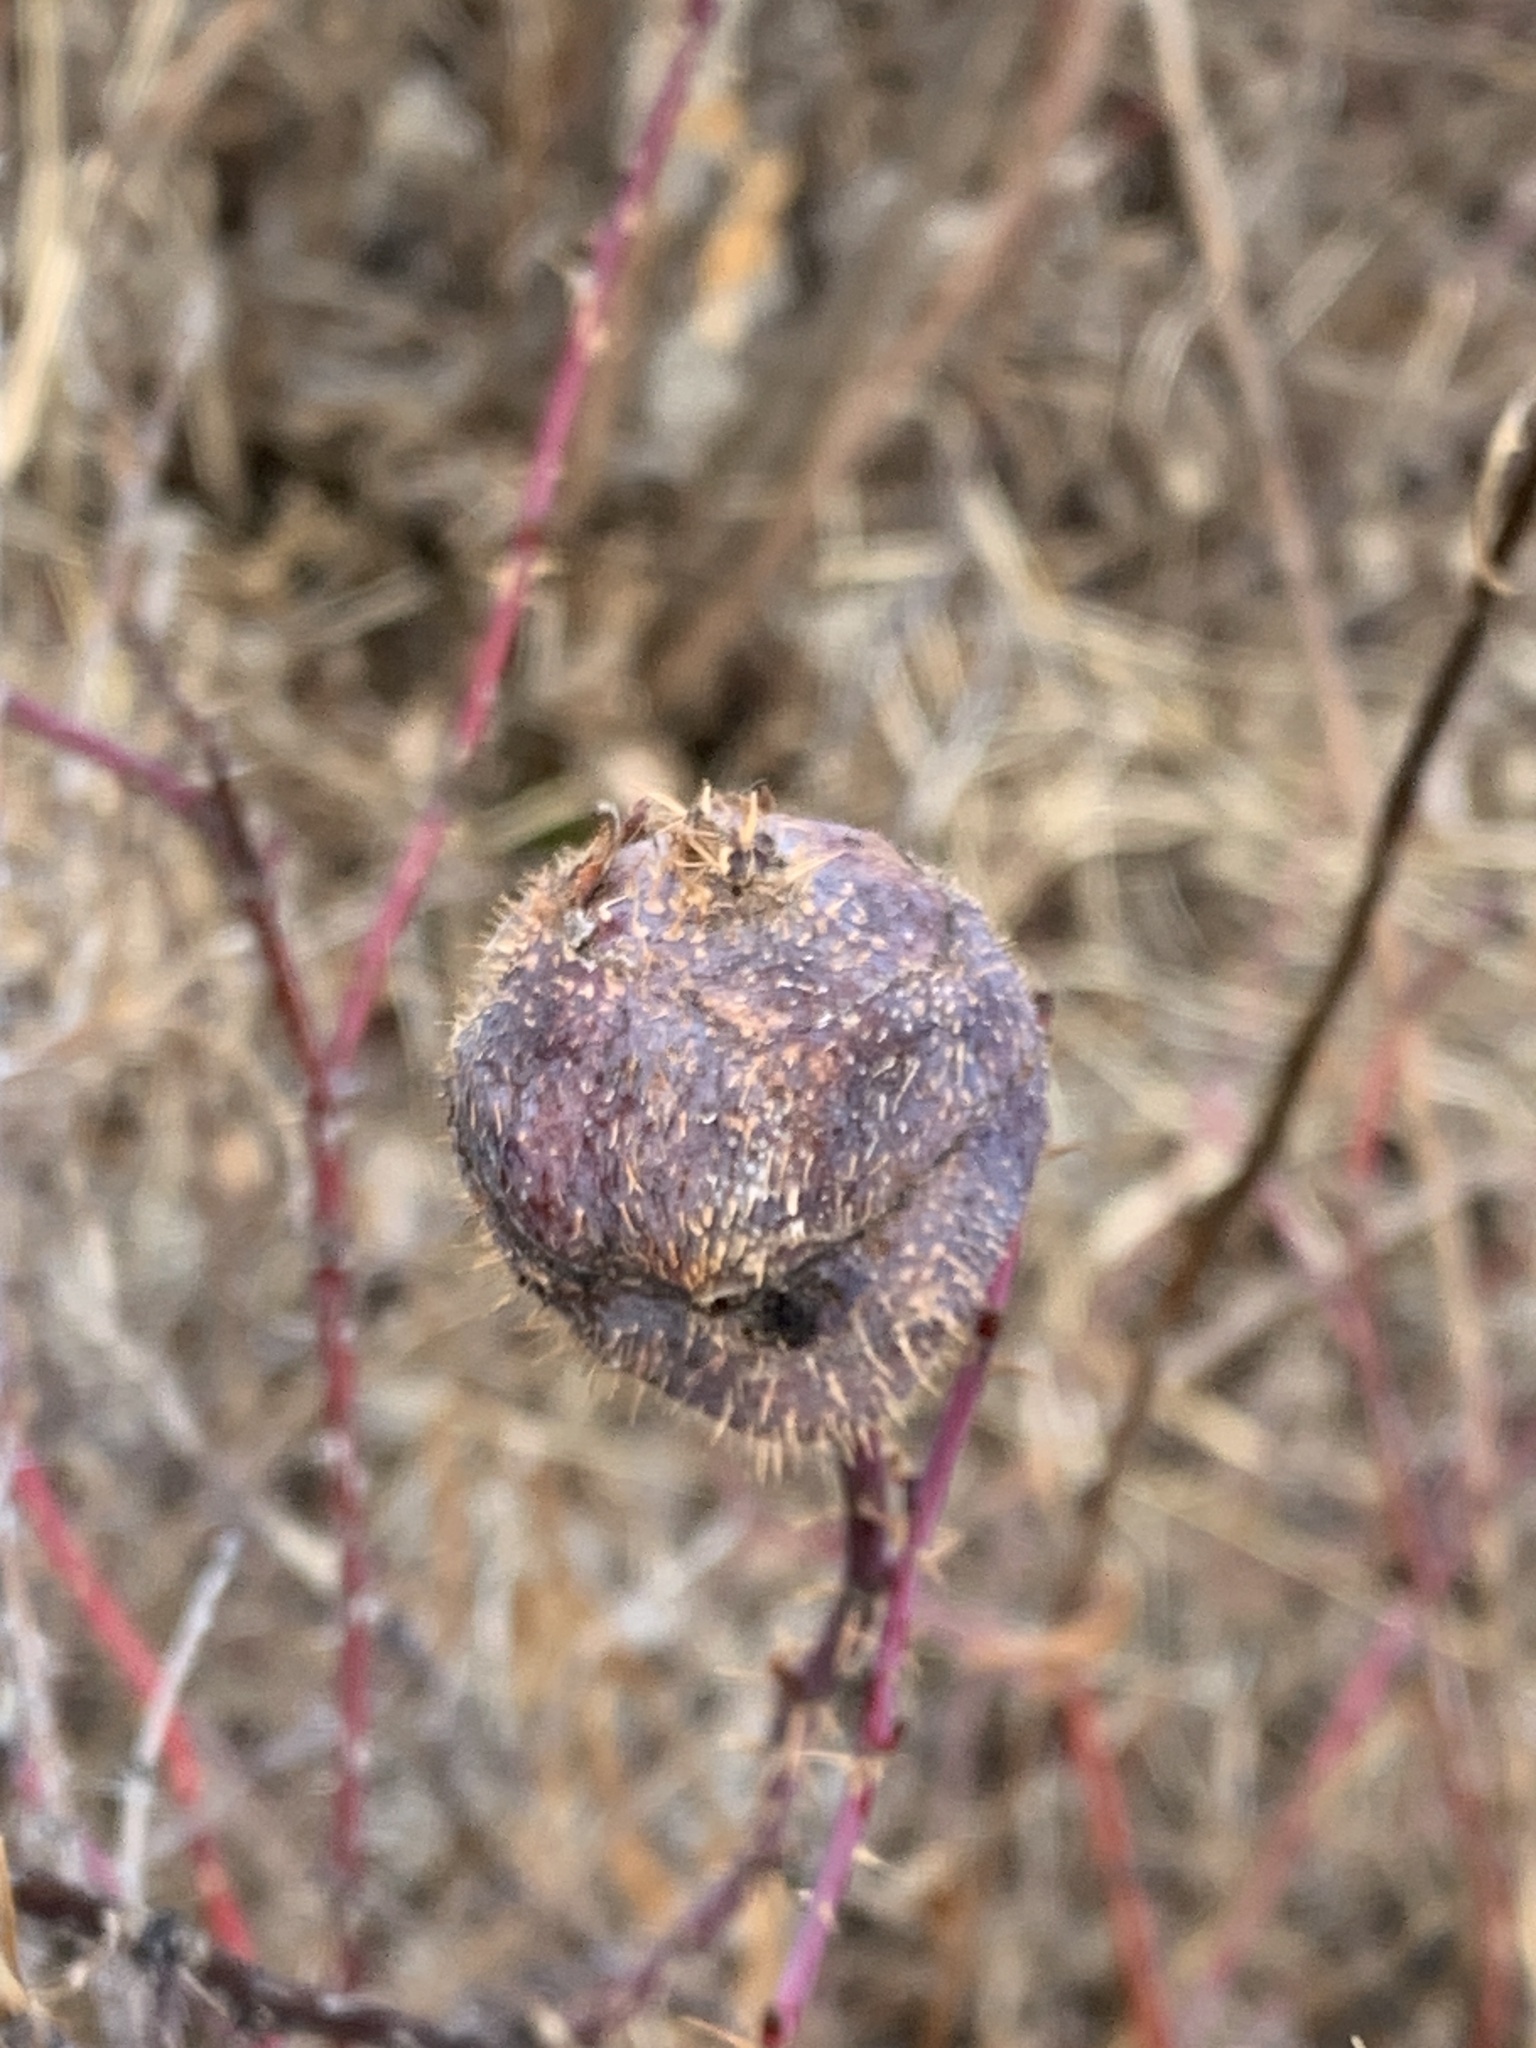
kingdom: Animalia
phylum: Arthropoda
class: Insecta
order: Hymenoptera
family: Cynipidae
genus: Diplolepis
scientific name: Diplolepis spinosa
